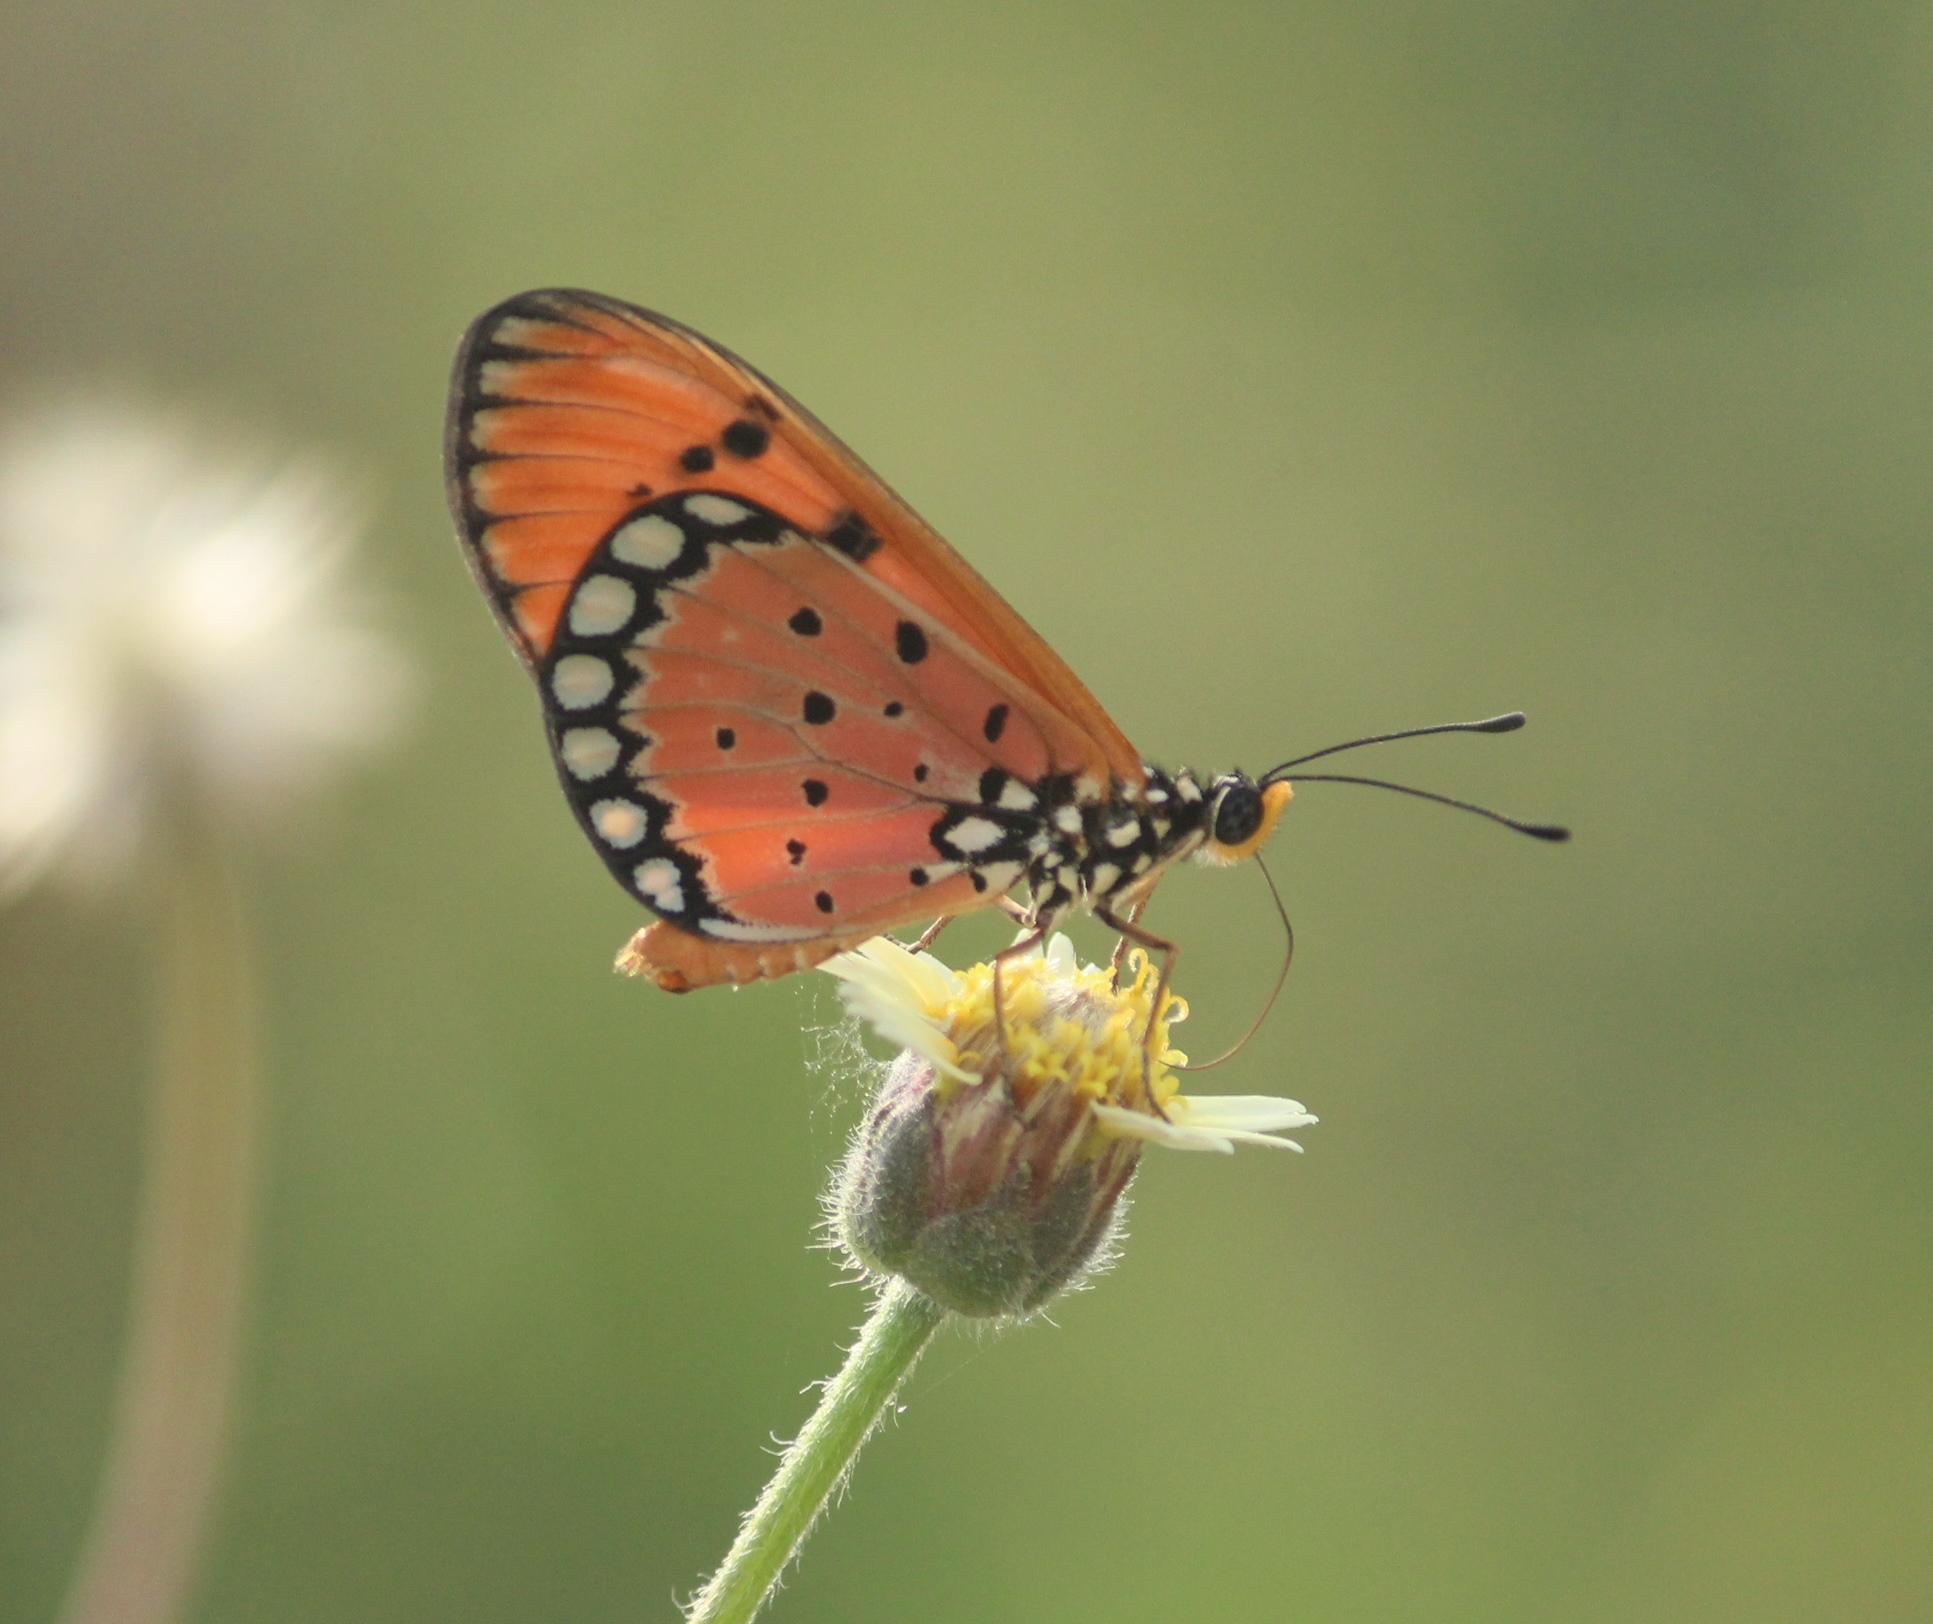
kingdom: Animalia
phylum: Arthropoda
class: Insecta
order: Lepidoptera
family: Nymphalidae
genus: Acraea
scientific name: Acraea terpsicore
